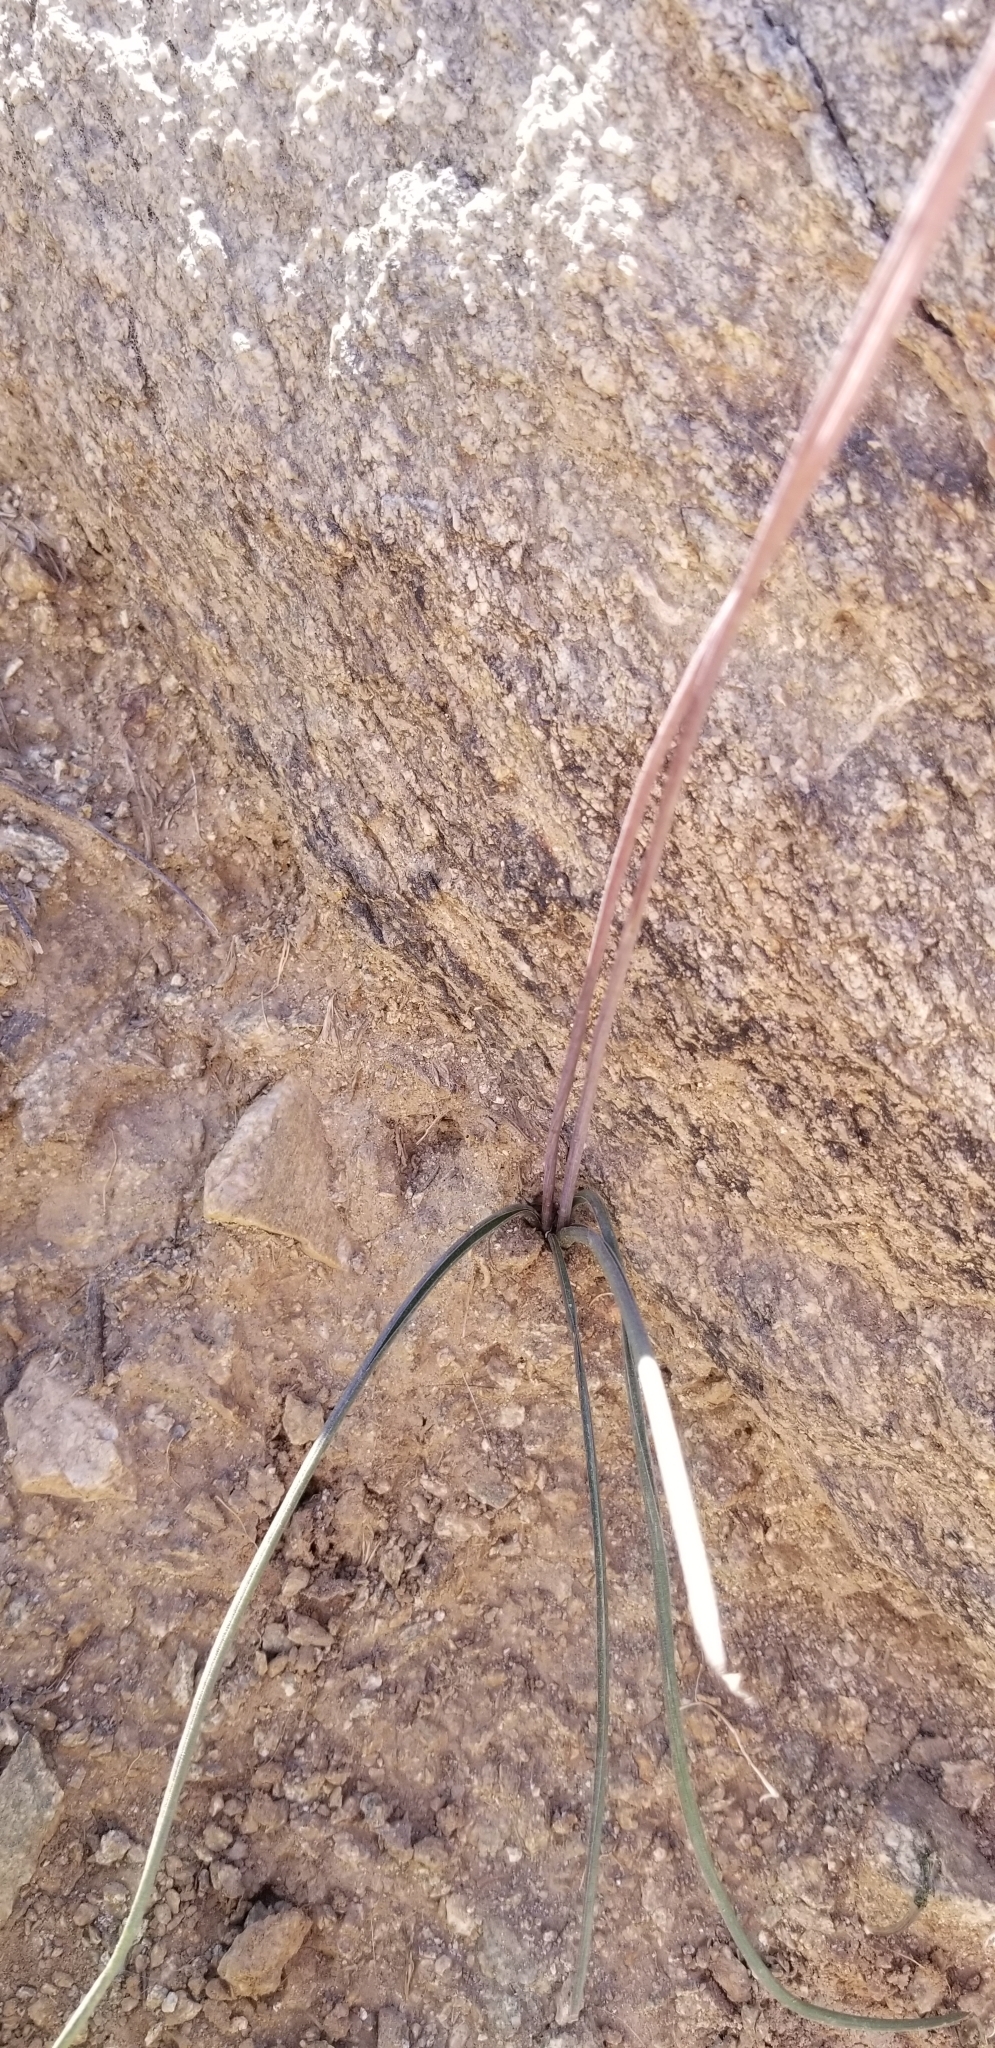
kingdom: Plantae
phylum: Tracheophyta
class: Liliopsida
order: Asparagales
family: Asparagaceae
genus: Dipterostemon
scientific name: Dipterostemon capitatus
